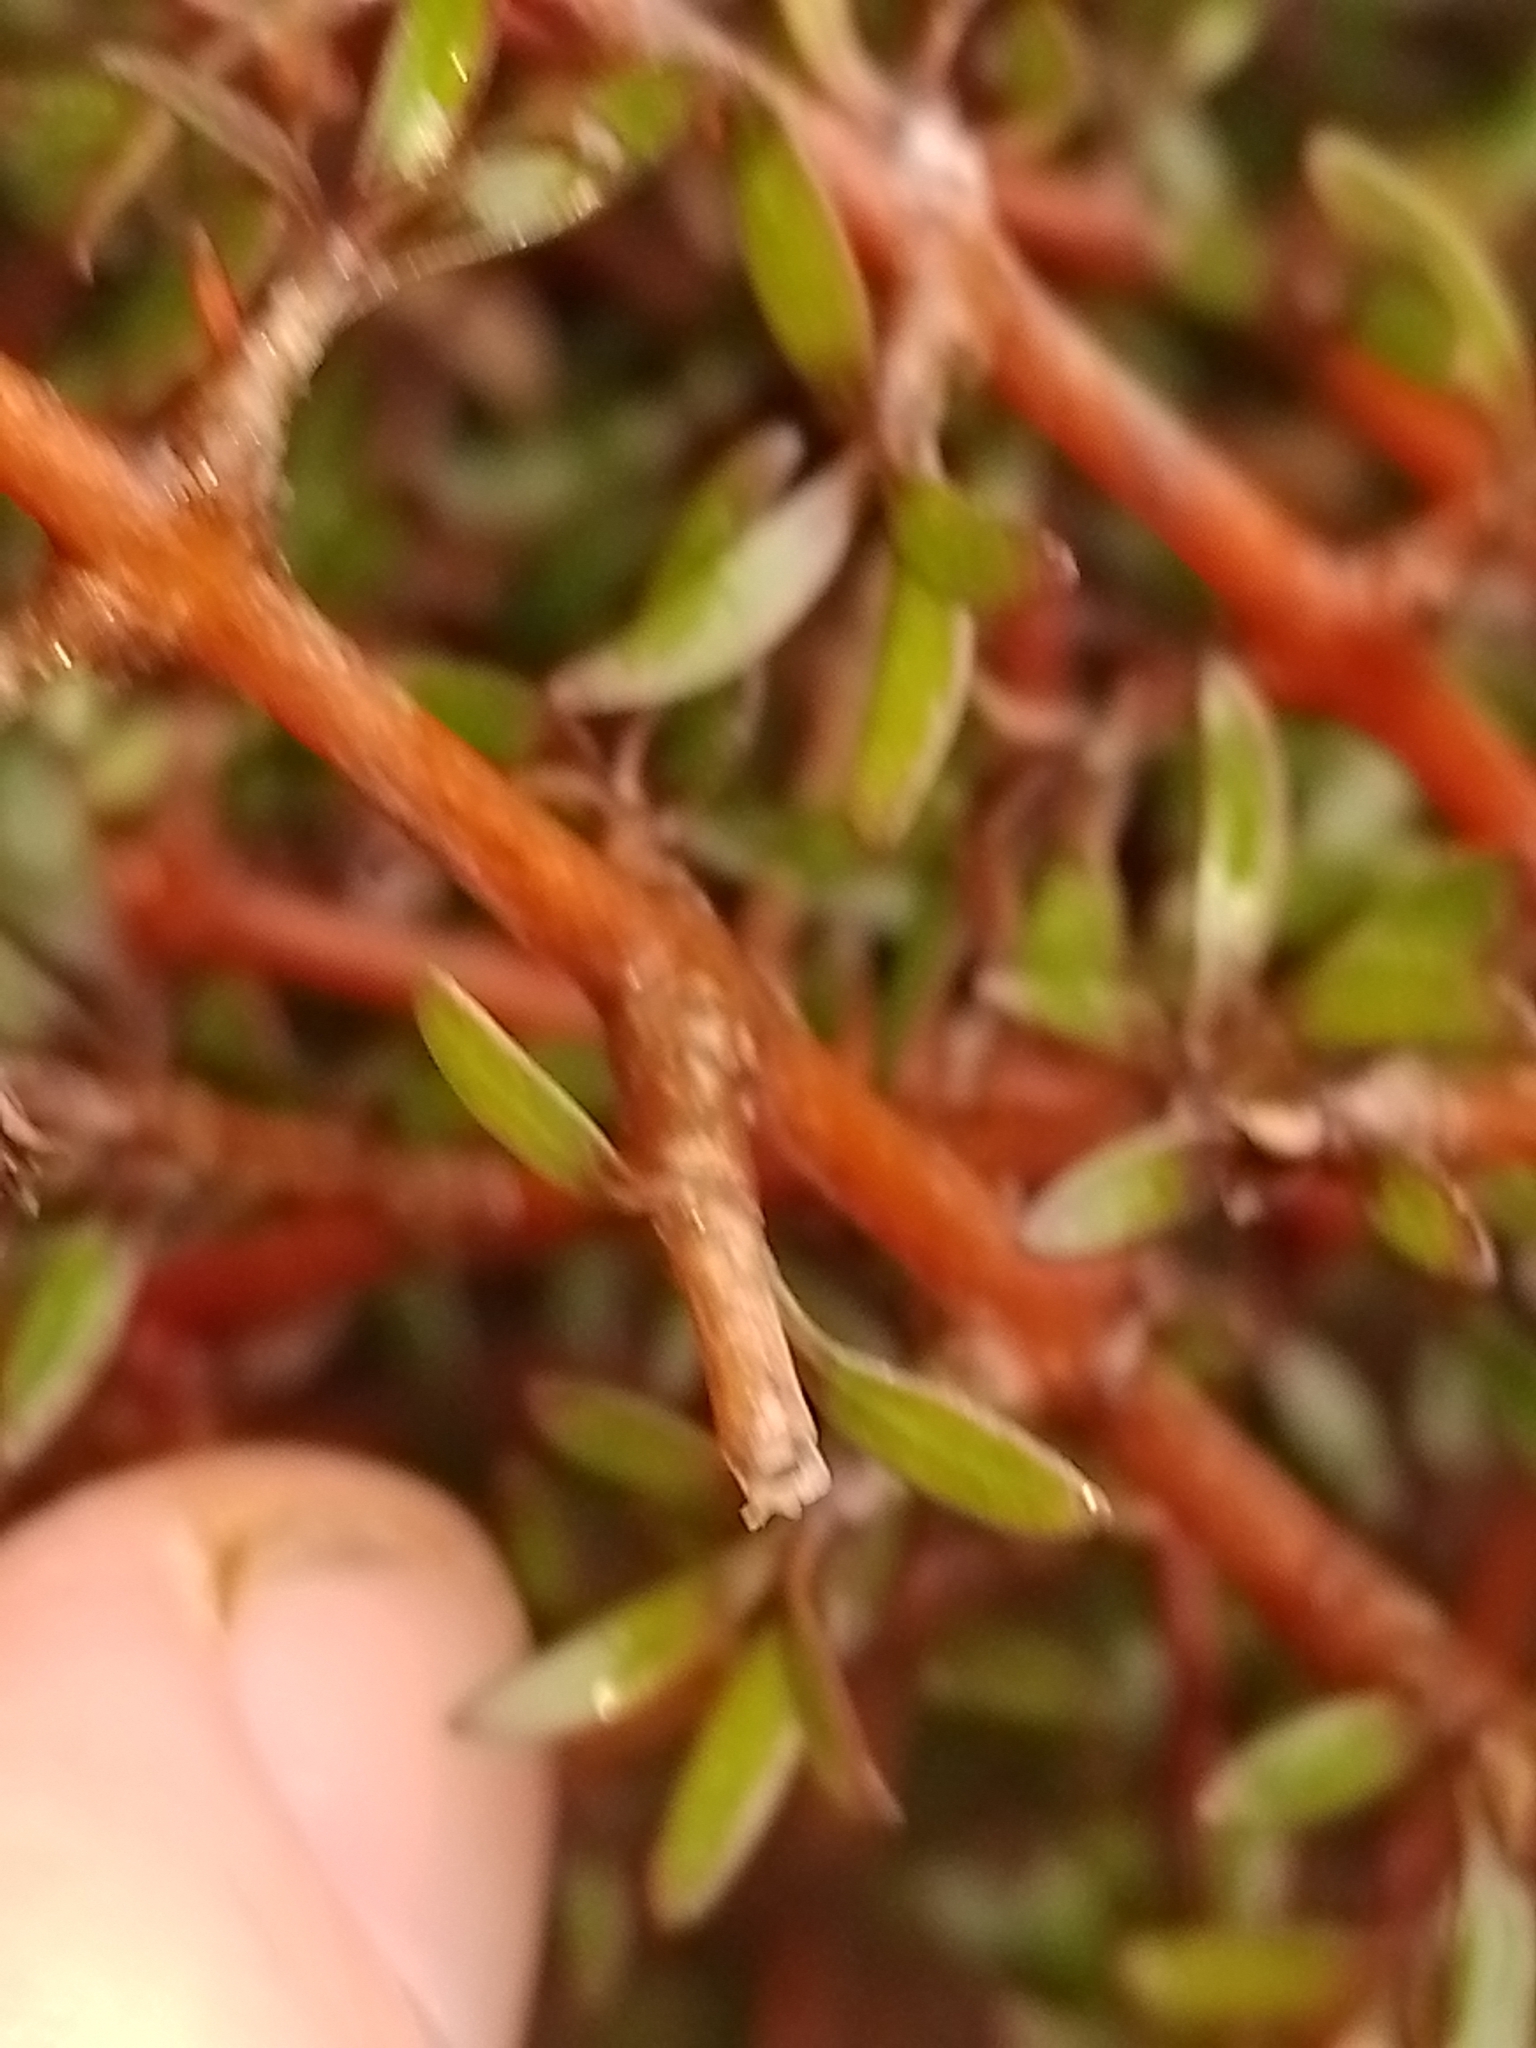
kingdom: Plantae
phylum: Tracheophyta
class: Magnoliopsida
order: Gentianales
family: Rubiaceae
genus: Coprosma
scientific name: Coprosma propinqua
